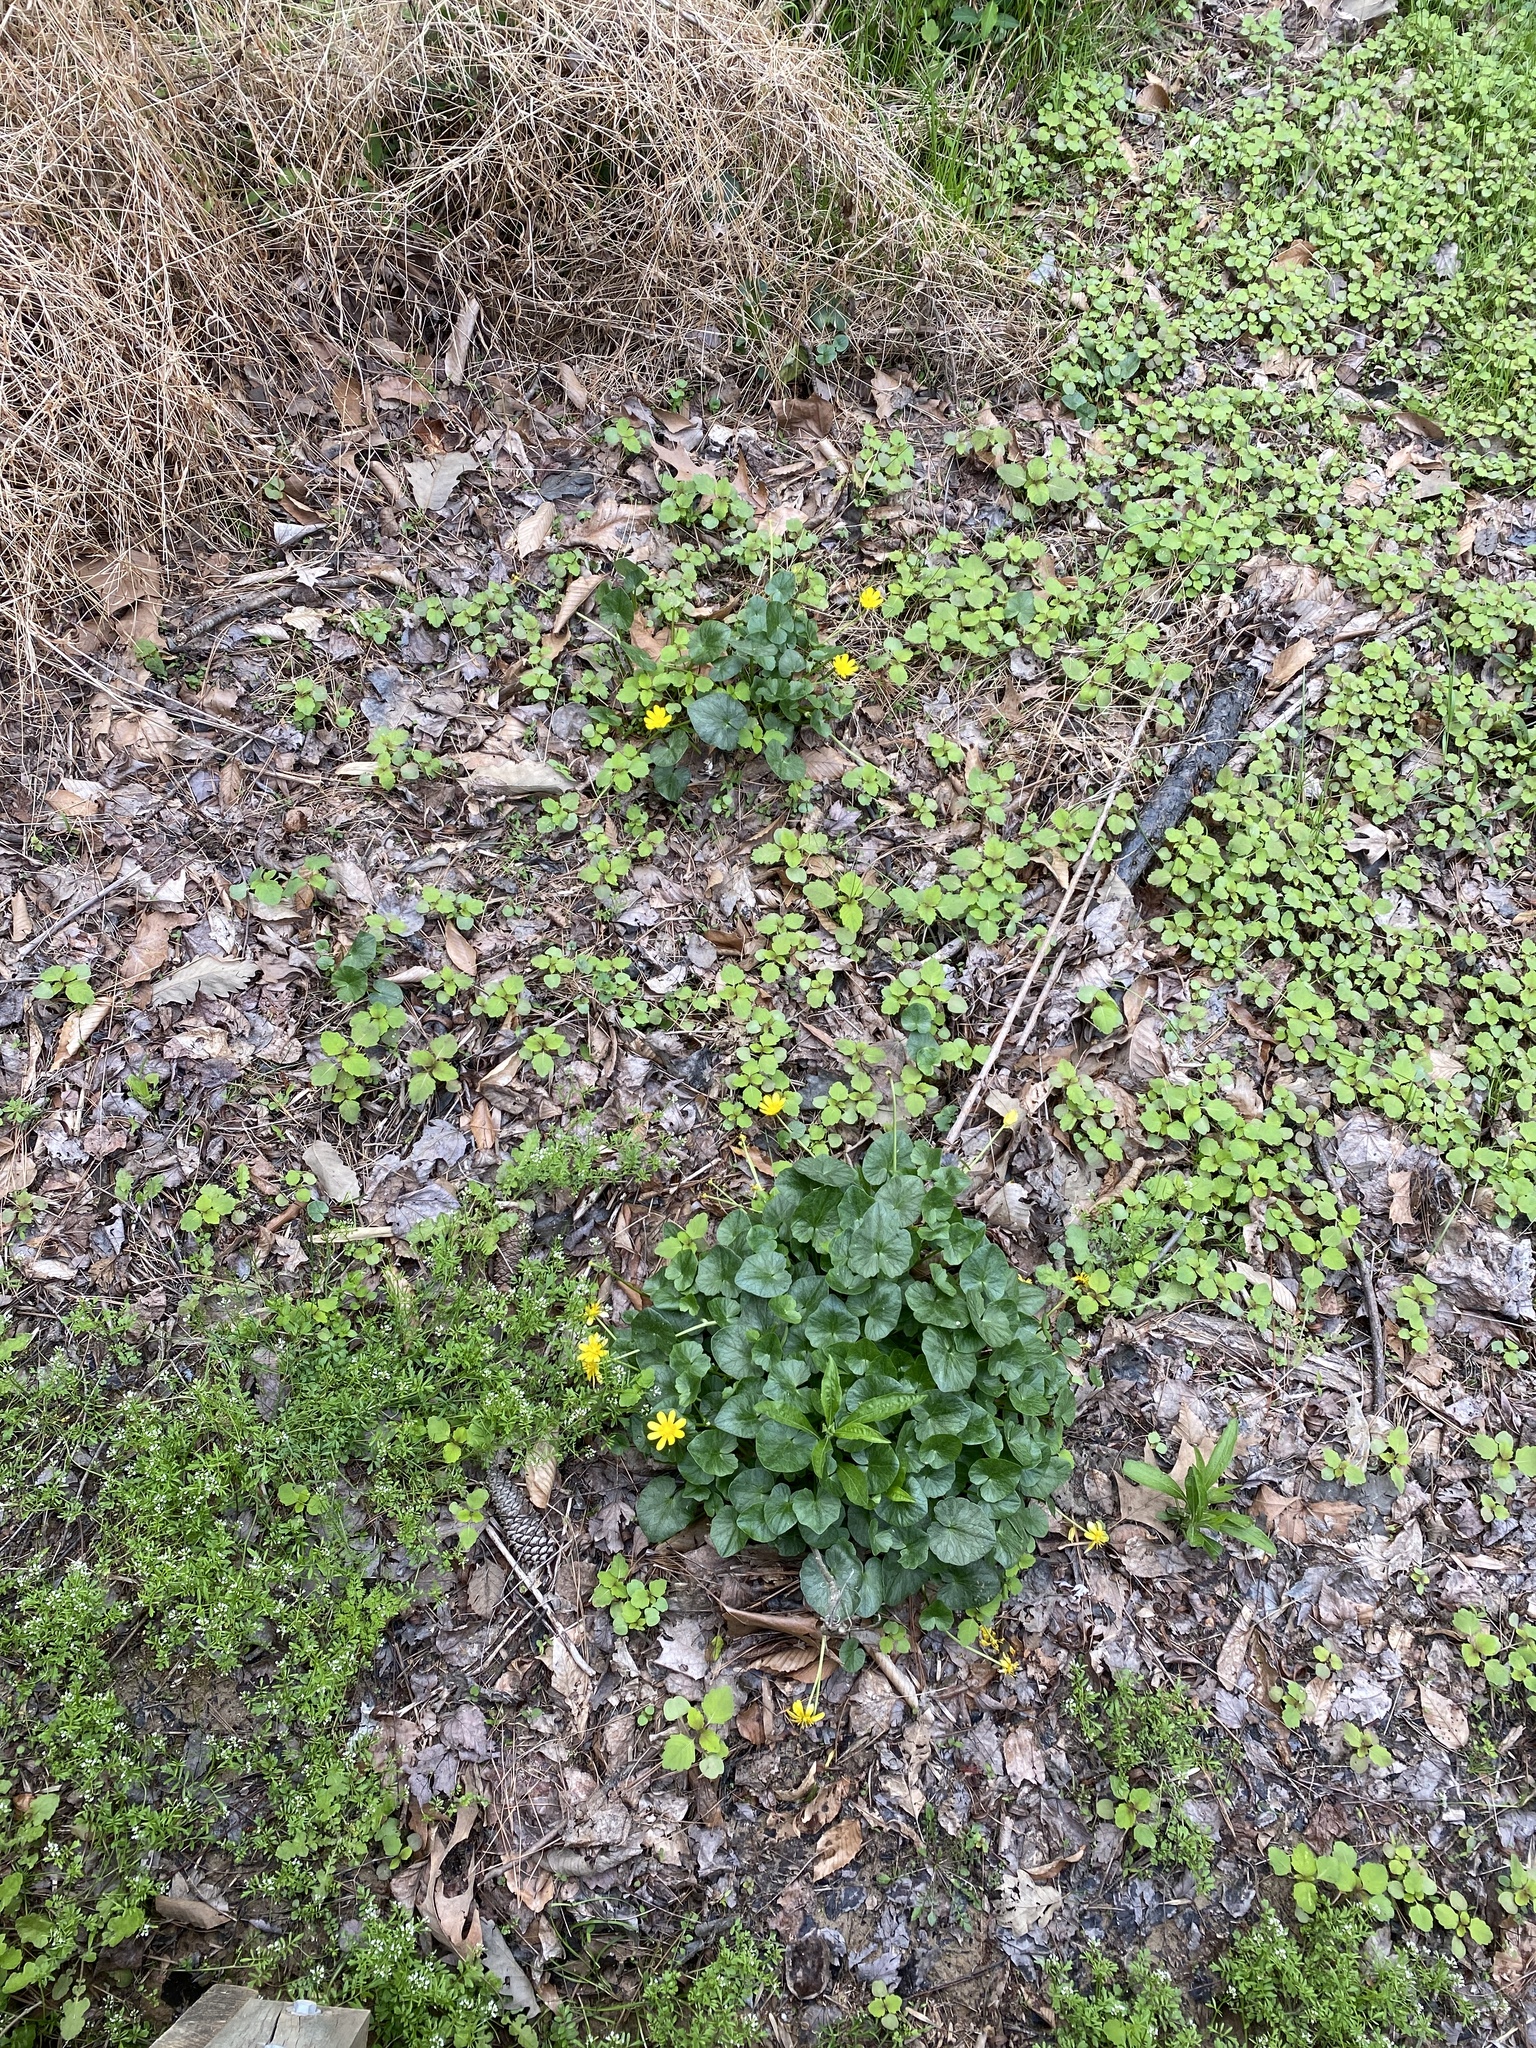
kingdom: Plantae
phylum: Tracheophyta
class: Magnoliopsida
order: Ranunculales
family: Ranunculaceae
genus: Ficaria
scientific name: Ficaria verna
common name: Lesser celandine
